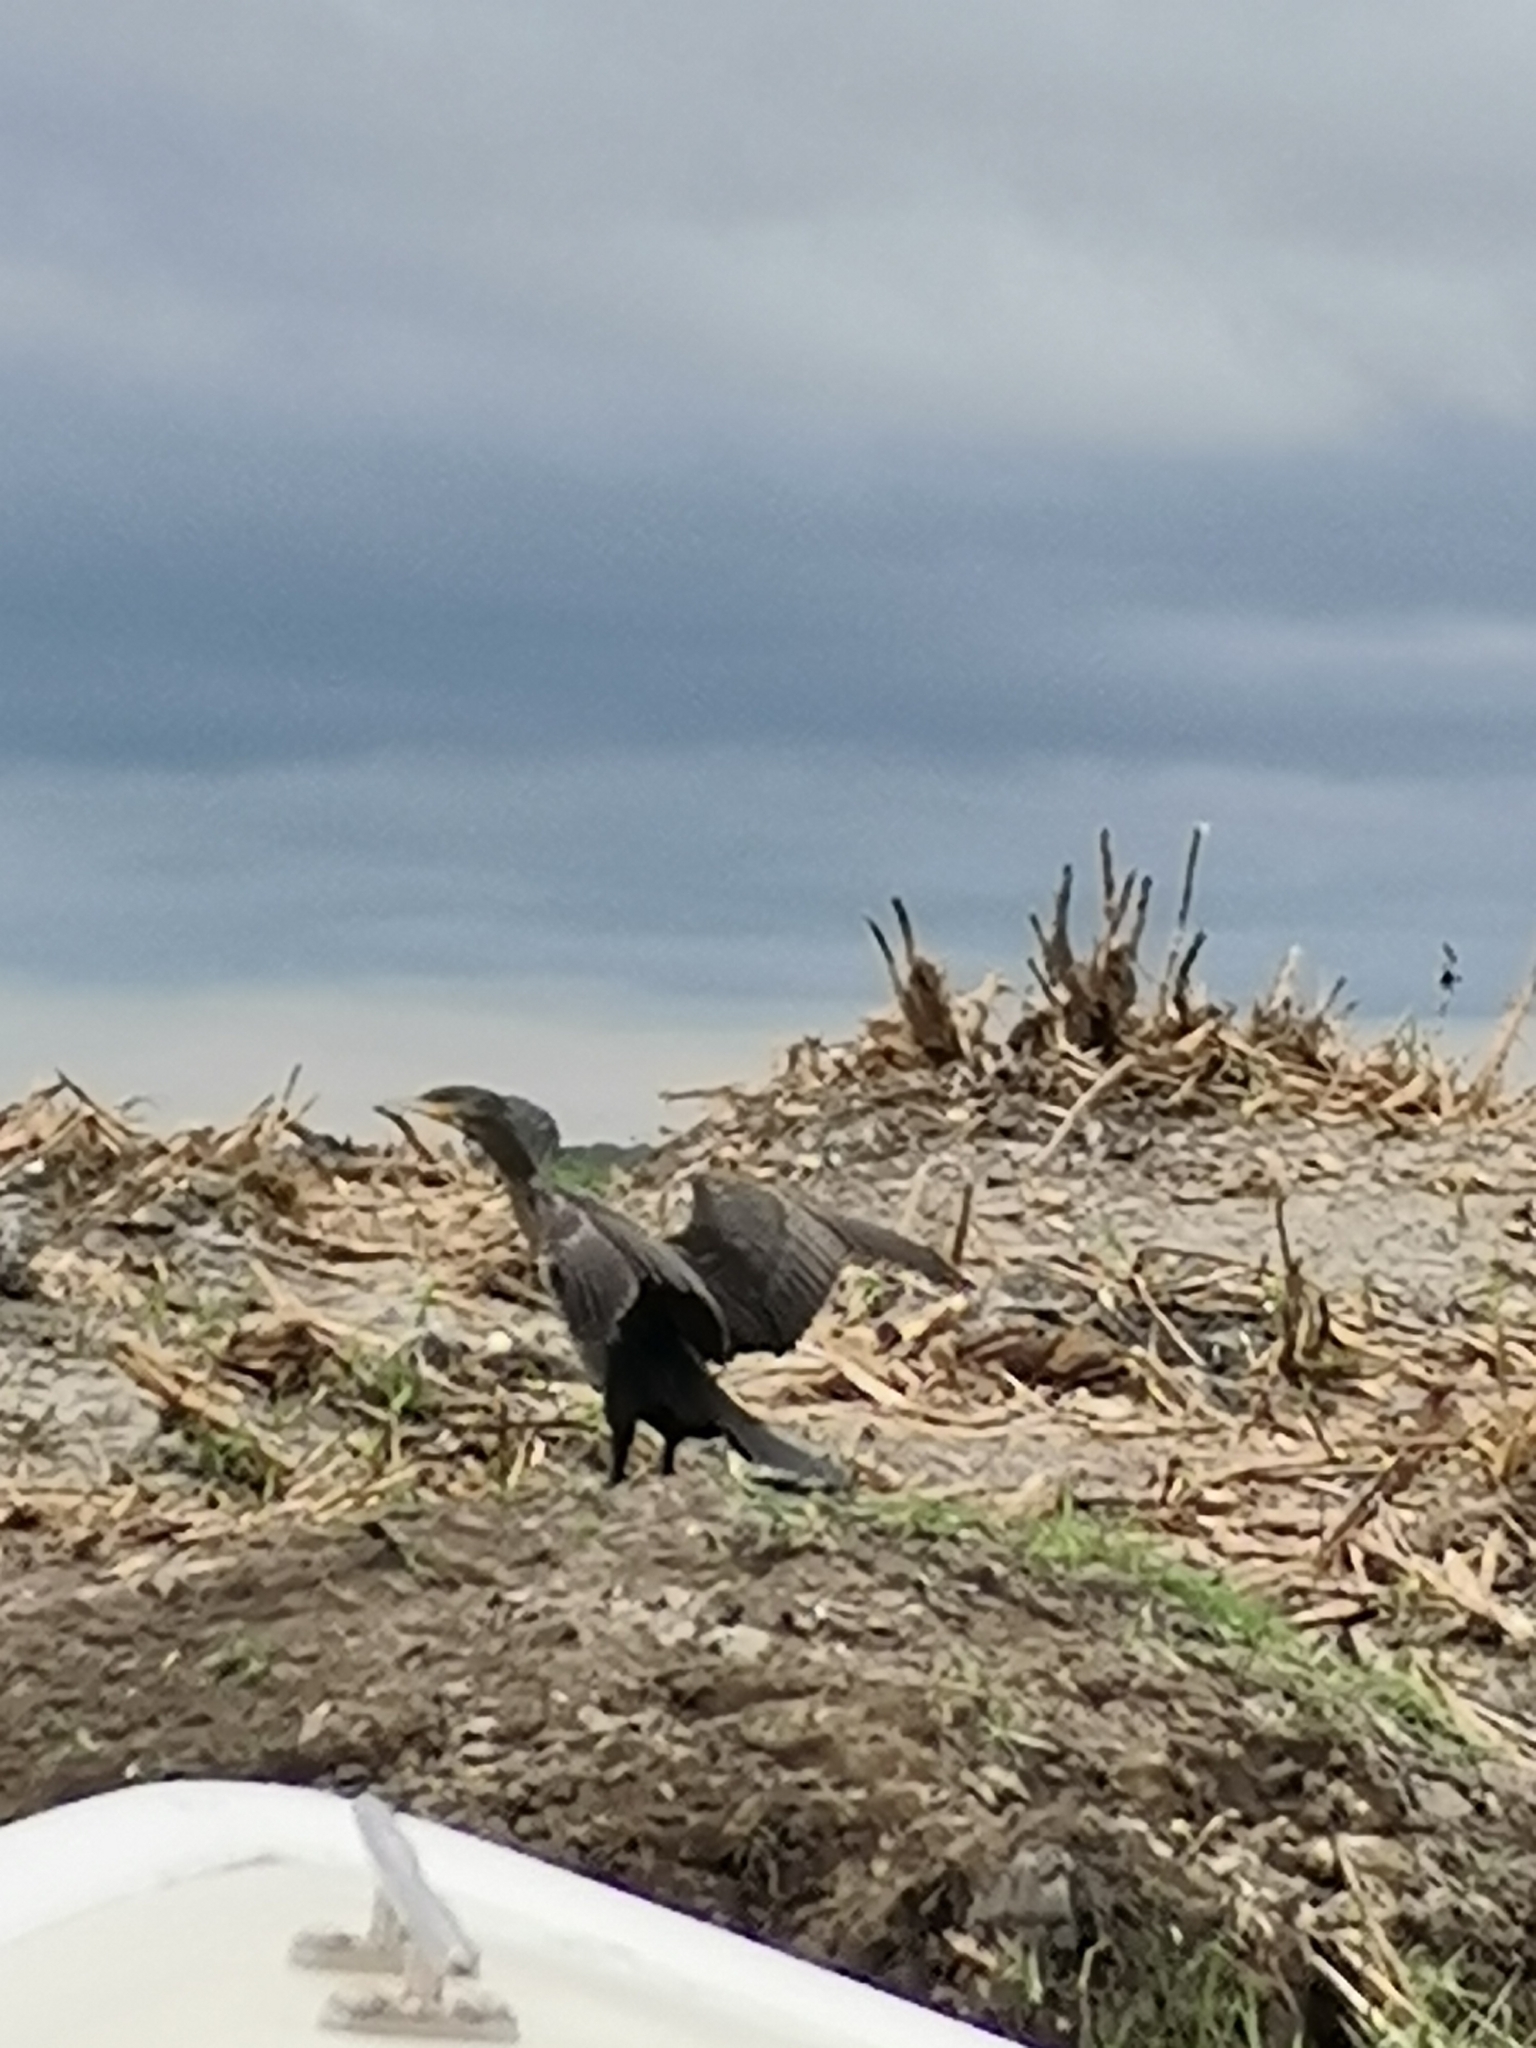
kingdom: Animalia
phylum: Chordata
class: Aves
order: Suliformes
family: Phalacrocoracidae
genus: Phalacrocorax
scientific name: Phalacrocorax carbo
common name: Great cormorant
